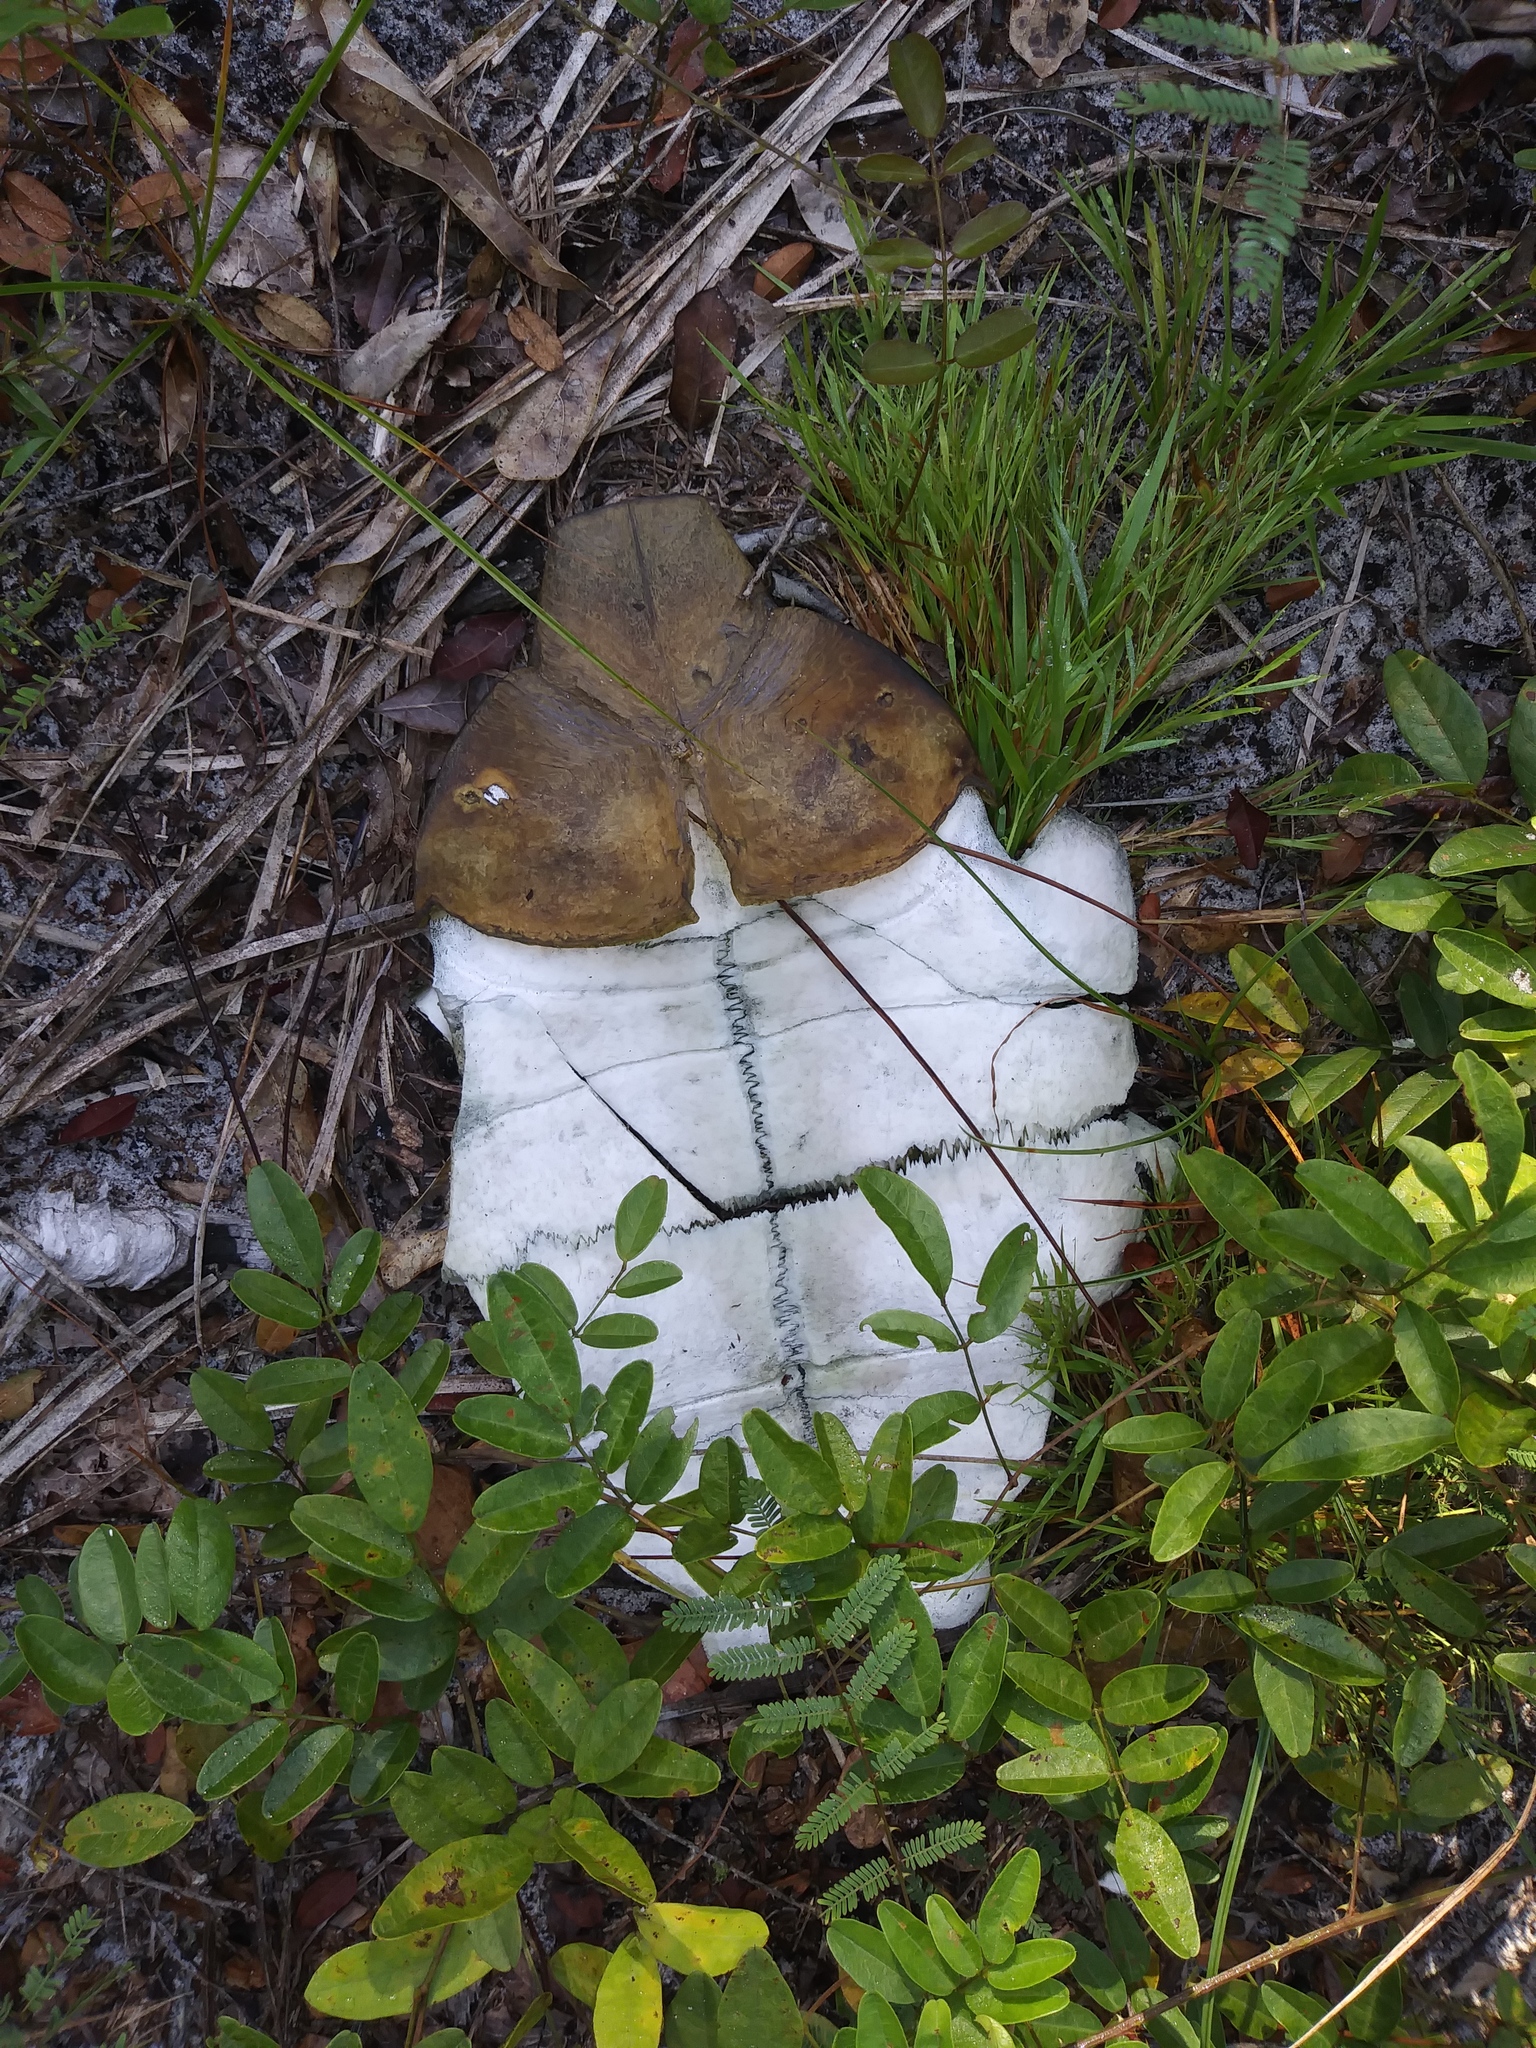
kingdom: Animalia
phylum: Chordata
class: Testudines
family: Testudinidae
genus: Gopherus
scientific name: Gopherus polyphemus
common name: Florida gopher tortoise
